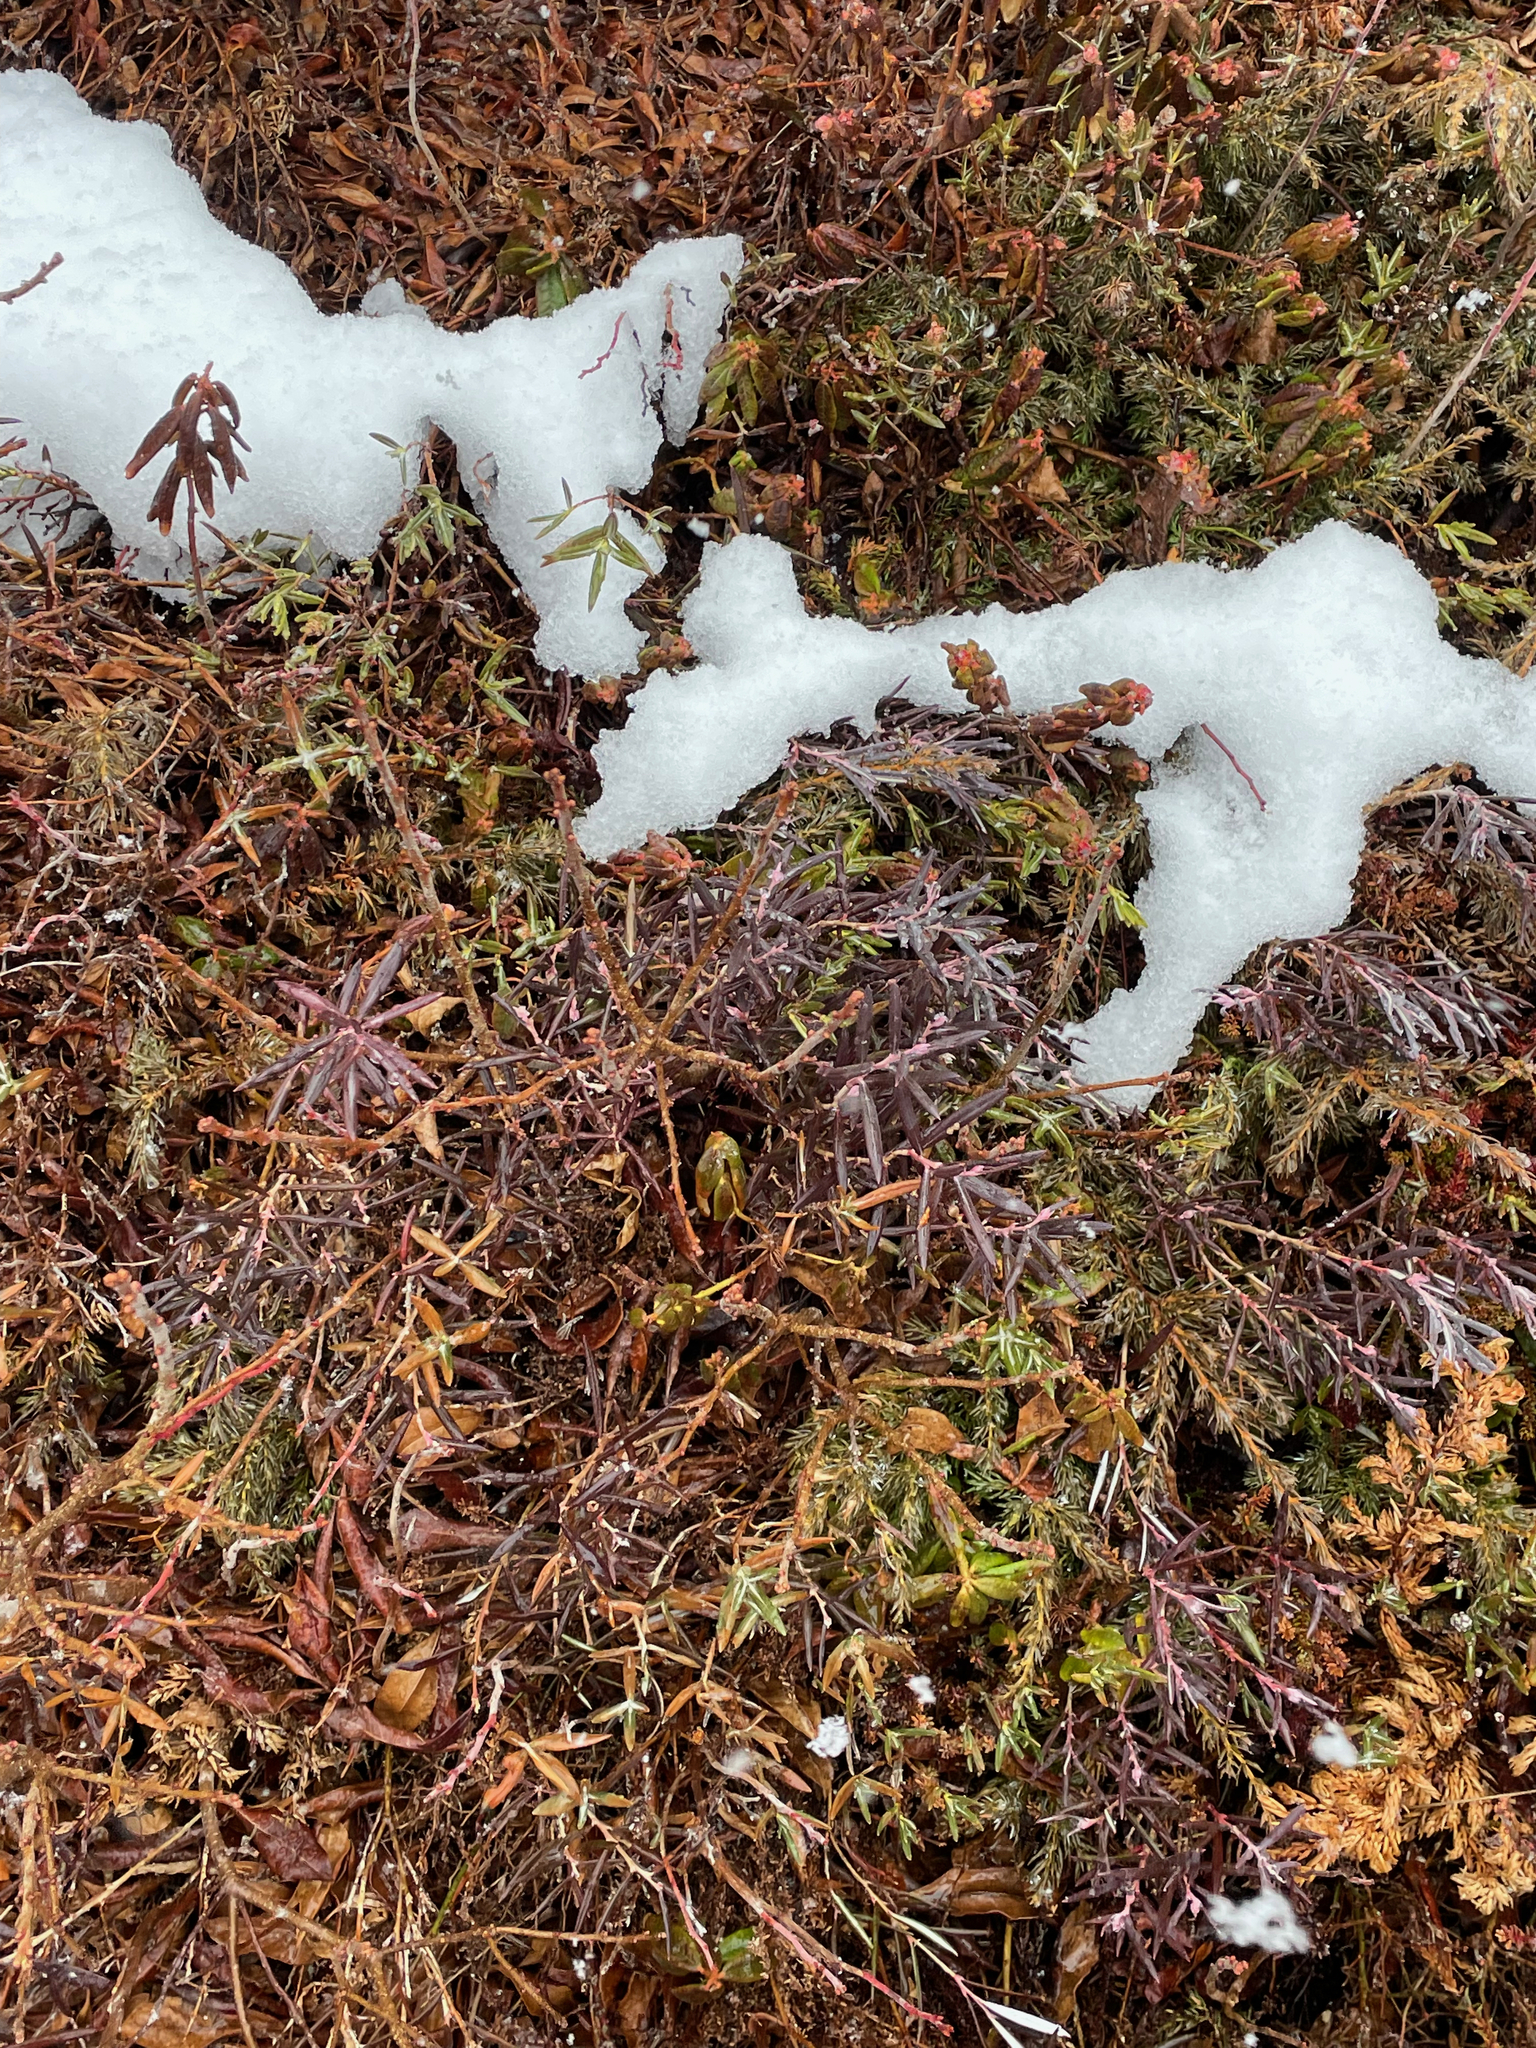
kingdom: Plantae
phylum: Tracheophyta
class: Magnoliopsida
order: Ericales
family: Ericaceae
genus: Andromeda
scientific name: Andromeda polifolia
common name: Bog-rosemary
